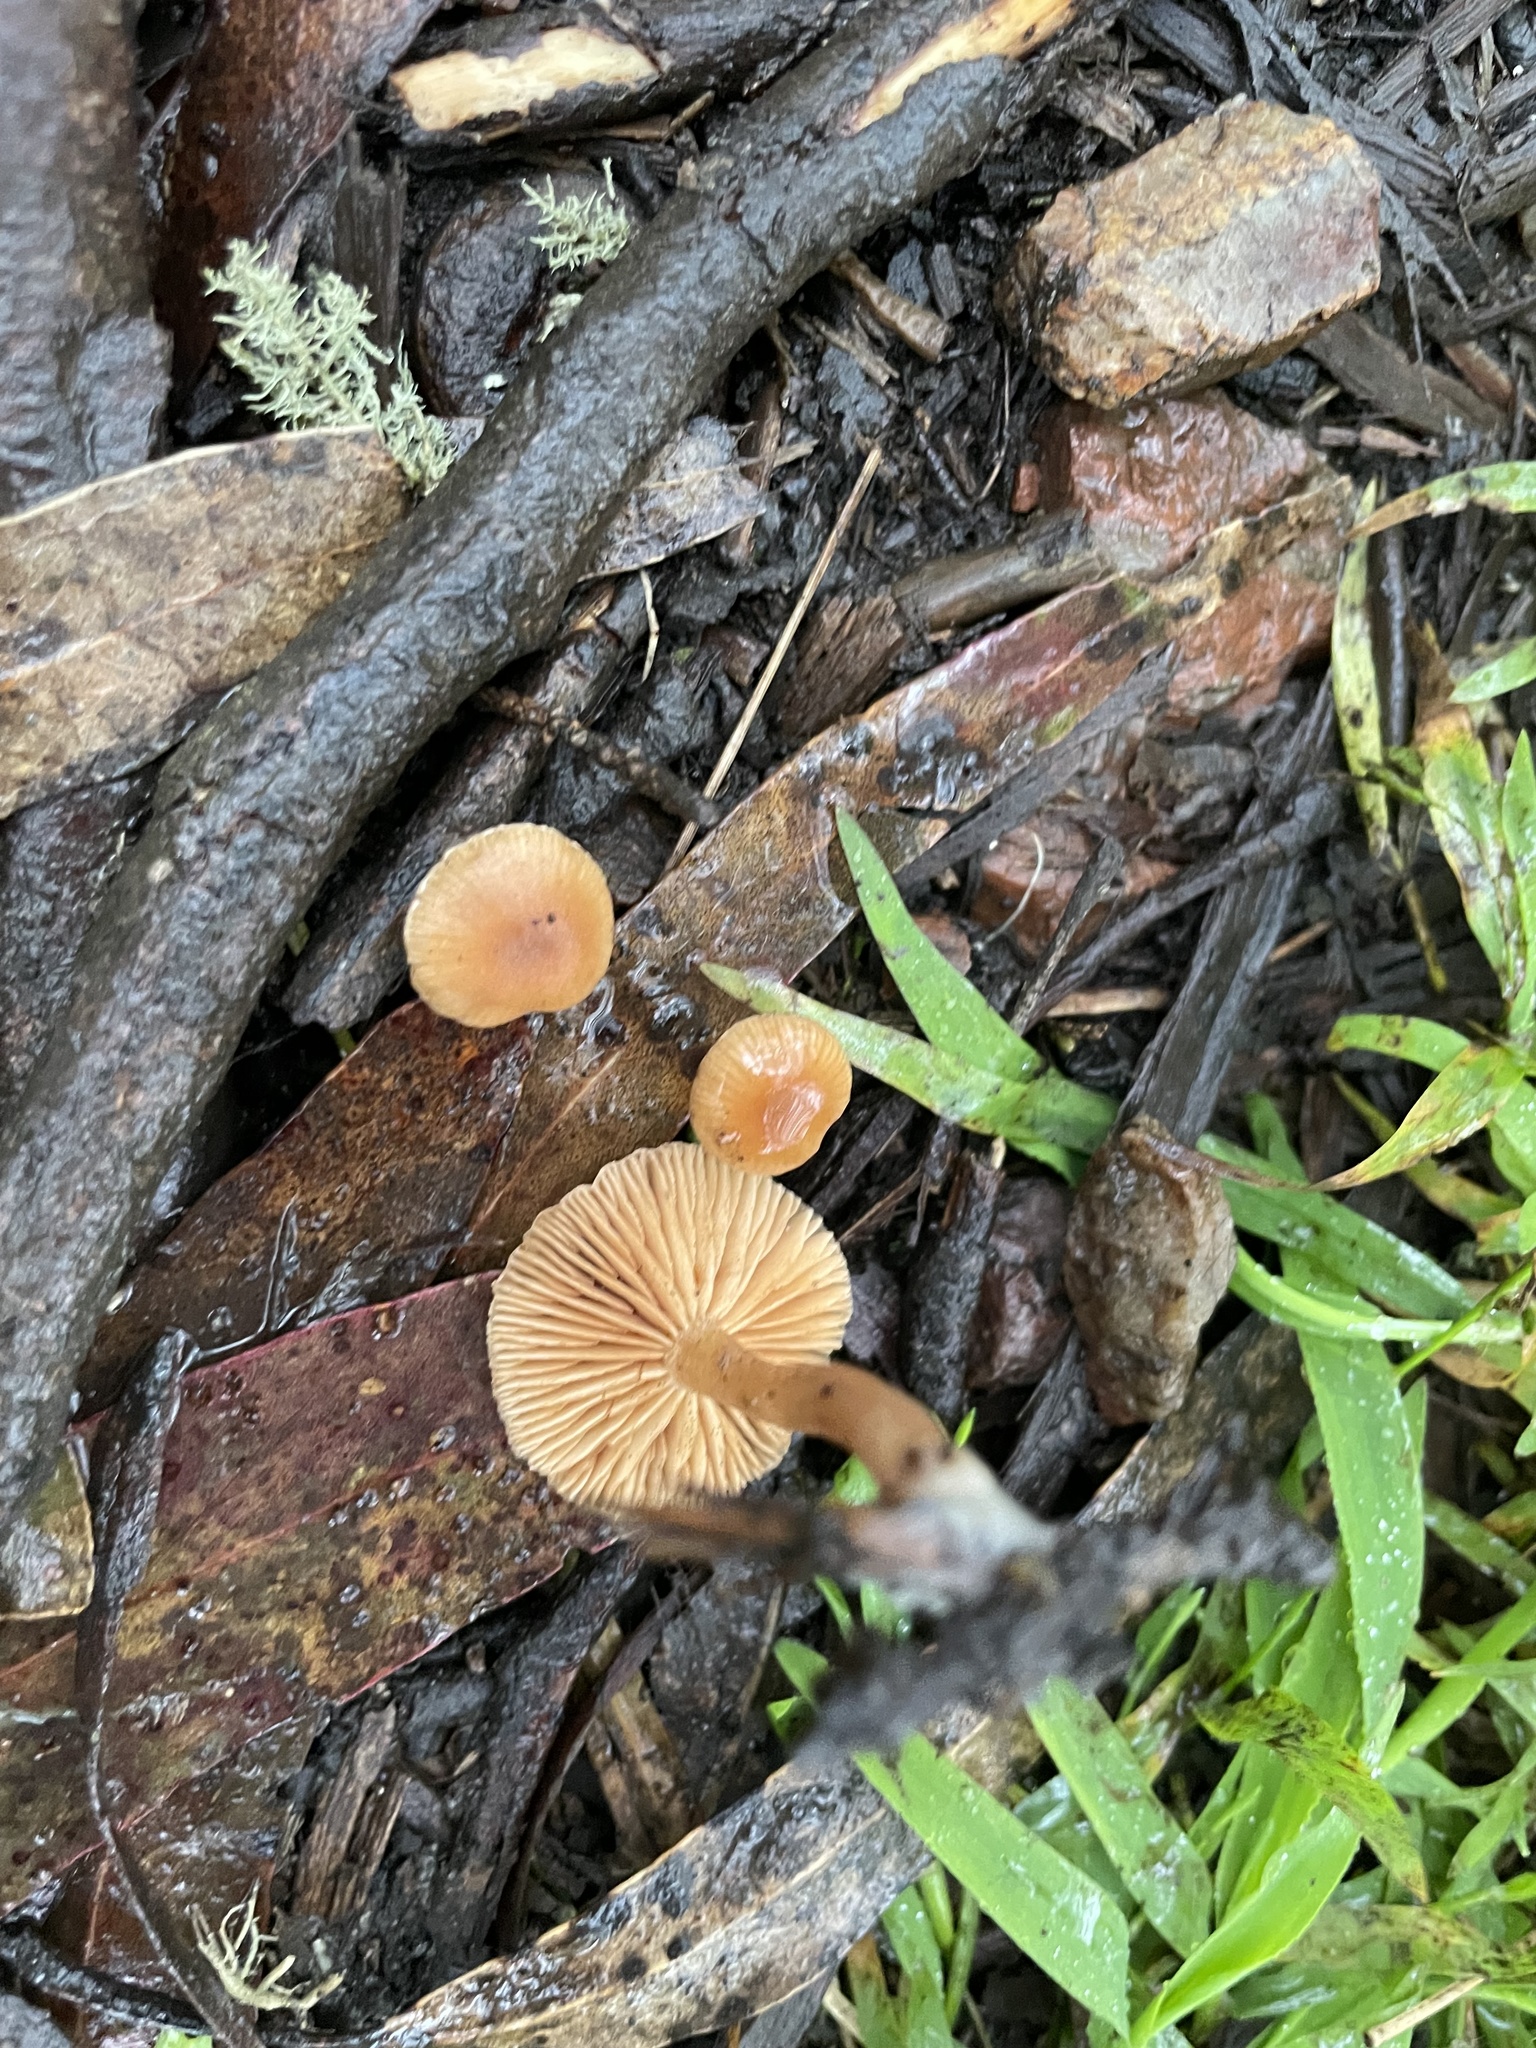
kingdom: Fungi
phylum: Basidiomycota
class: Agaricomycetes
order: Agaricales
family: Tubariaceae
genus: Tubaria
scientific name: Tubaria furfuracea
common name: Scurfy twiglet
